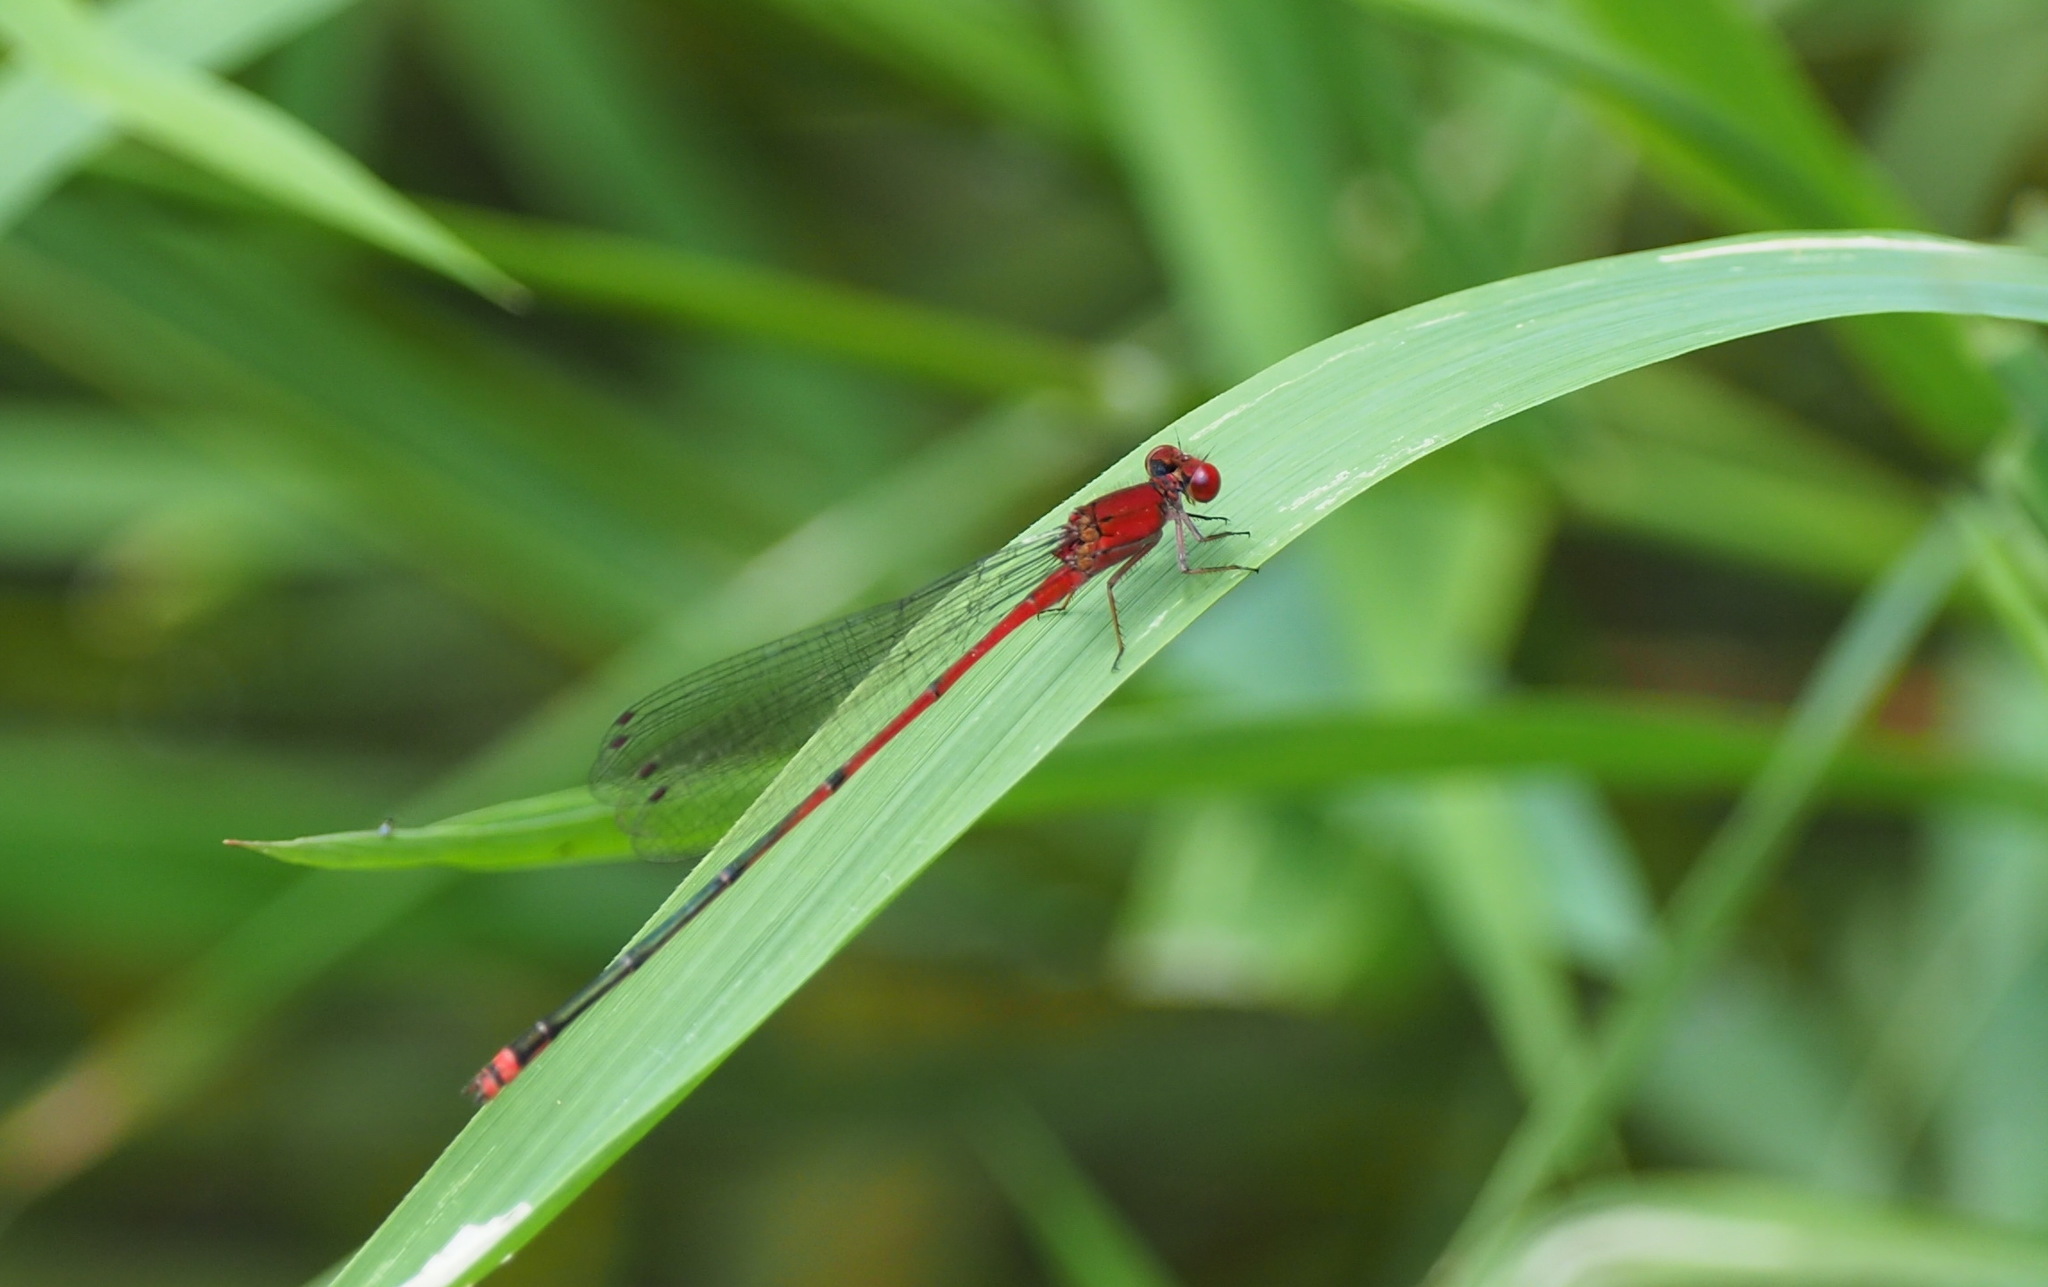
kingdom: Animalia
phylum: Arthropoda
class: Insecta
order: Odonata
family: Coenagrionidae
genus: Pseudagrion
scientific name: Pseudagrion pilidorsum
